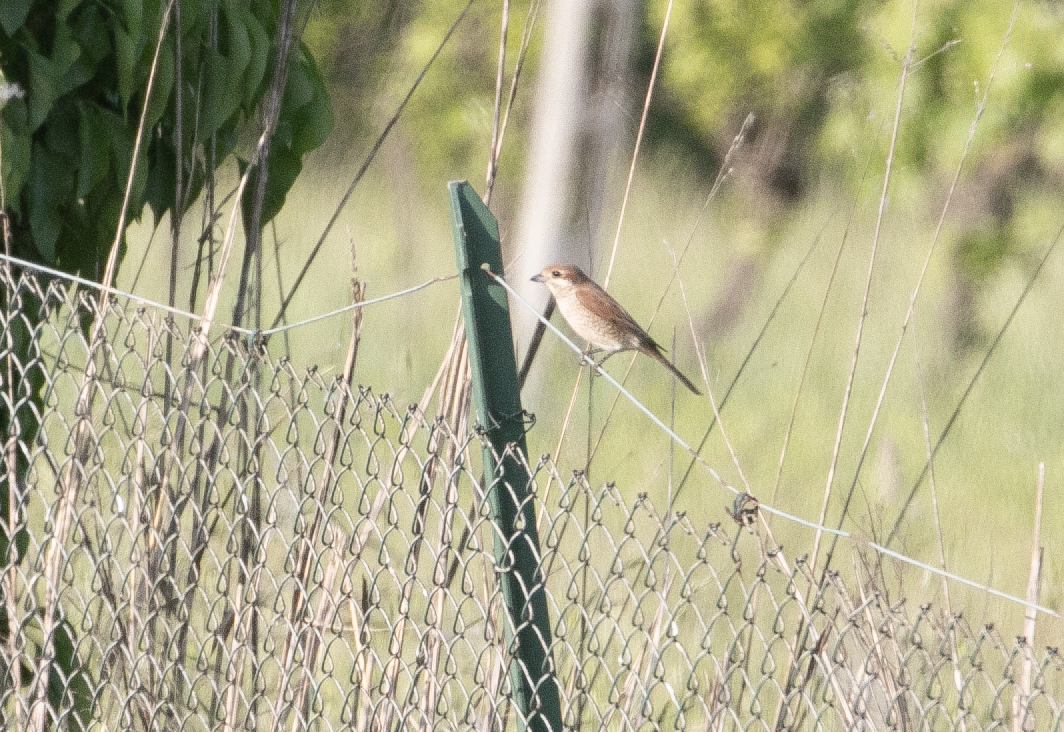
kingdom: Animalia
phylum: Chordata
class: Aves
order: Passeriformes
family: Laniidae
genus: Lanius
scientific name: Lanius collurio
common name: Red-backed shrike
